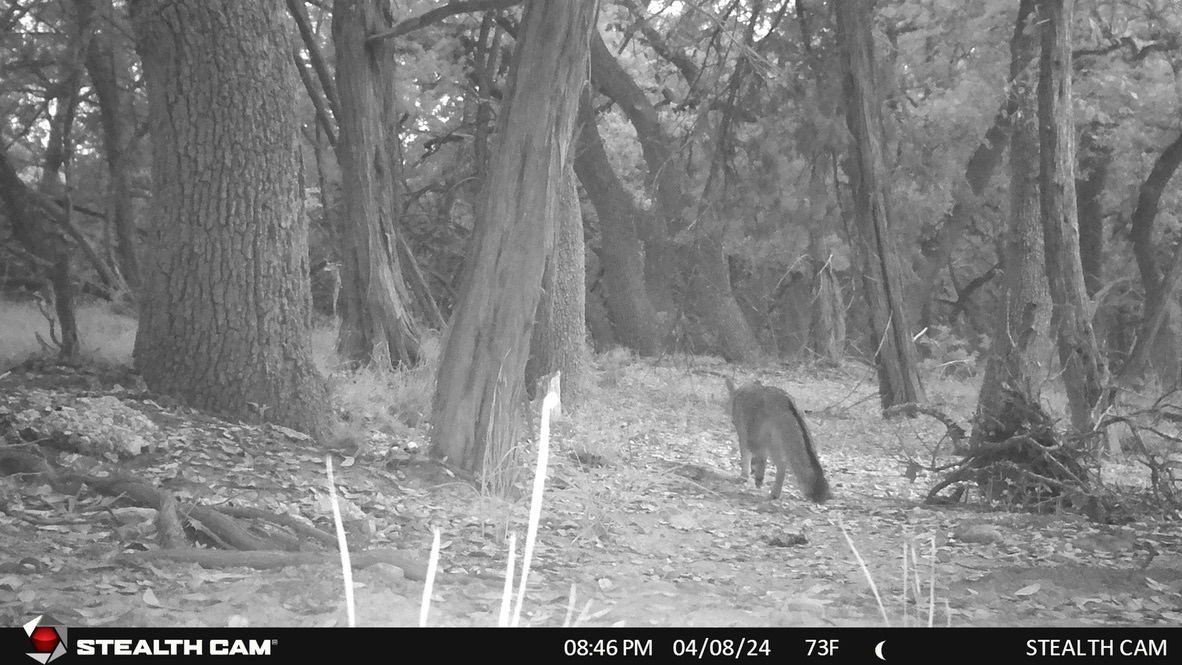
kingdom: Animalia
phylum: Chordata
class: Mammalia
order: Carnivora
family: Canidae
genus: Urocyon
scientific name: Urocyon cinereoargenteus
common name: Gray fox
